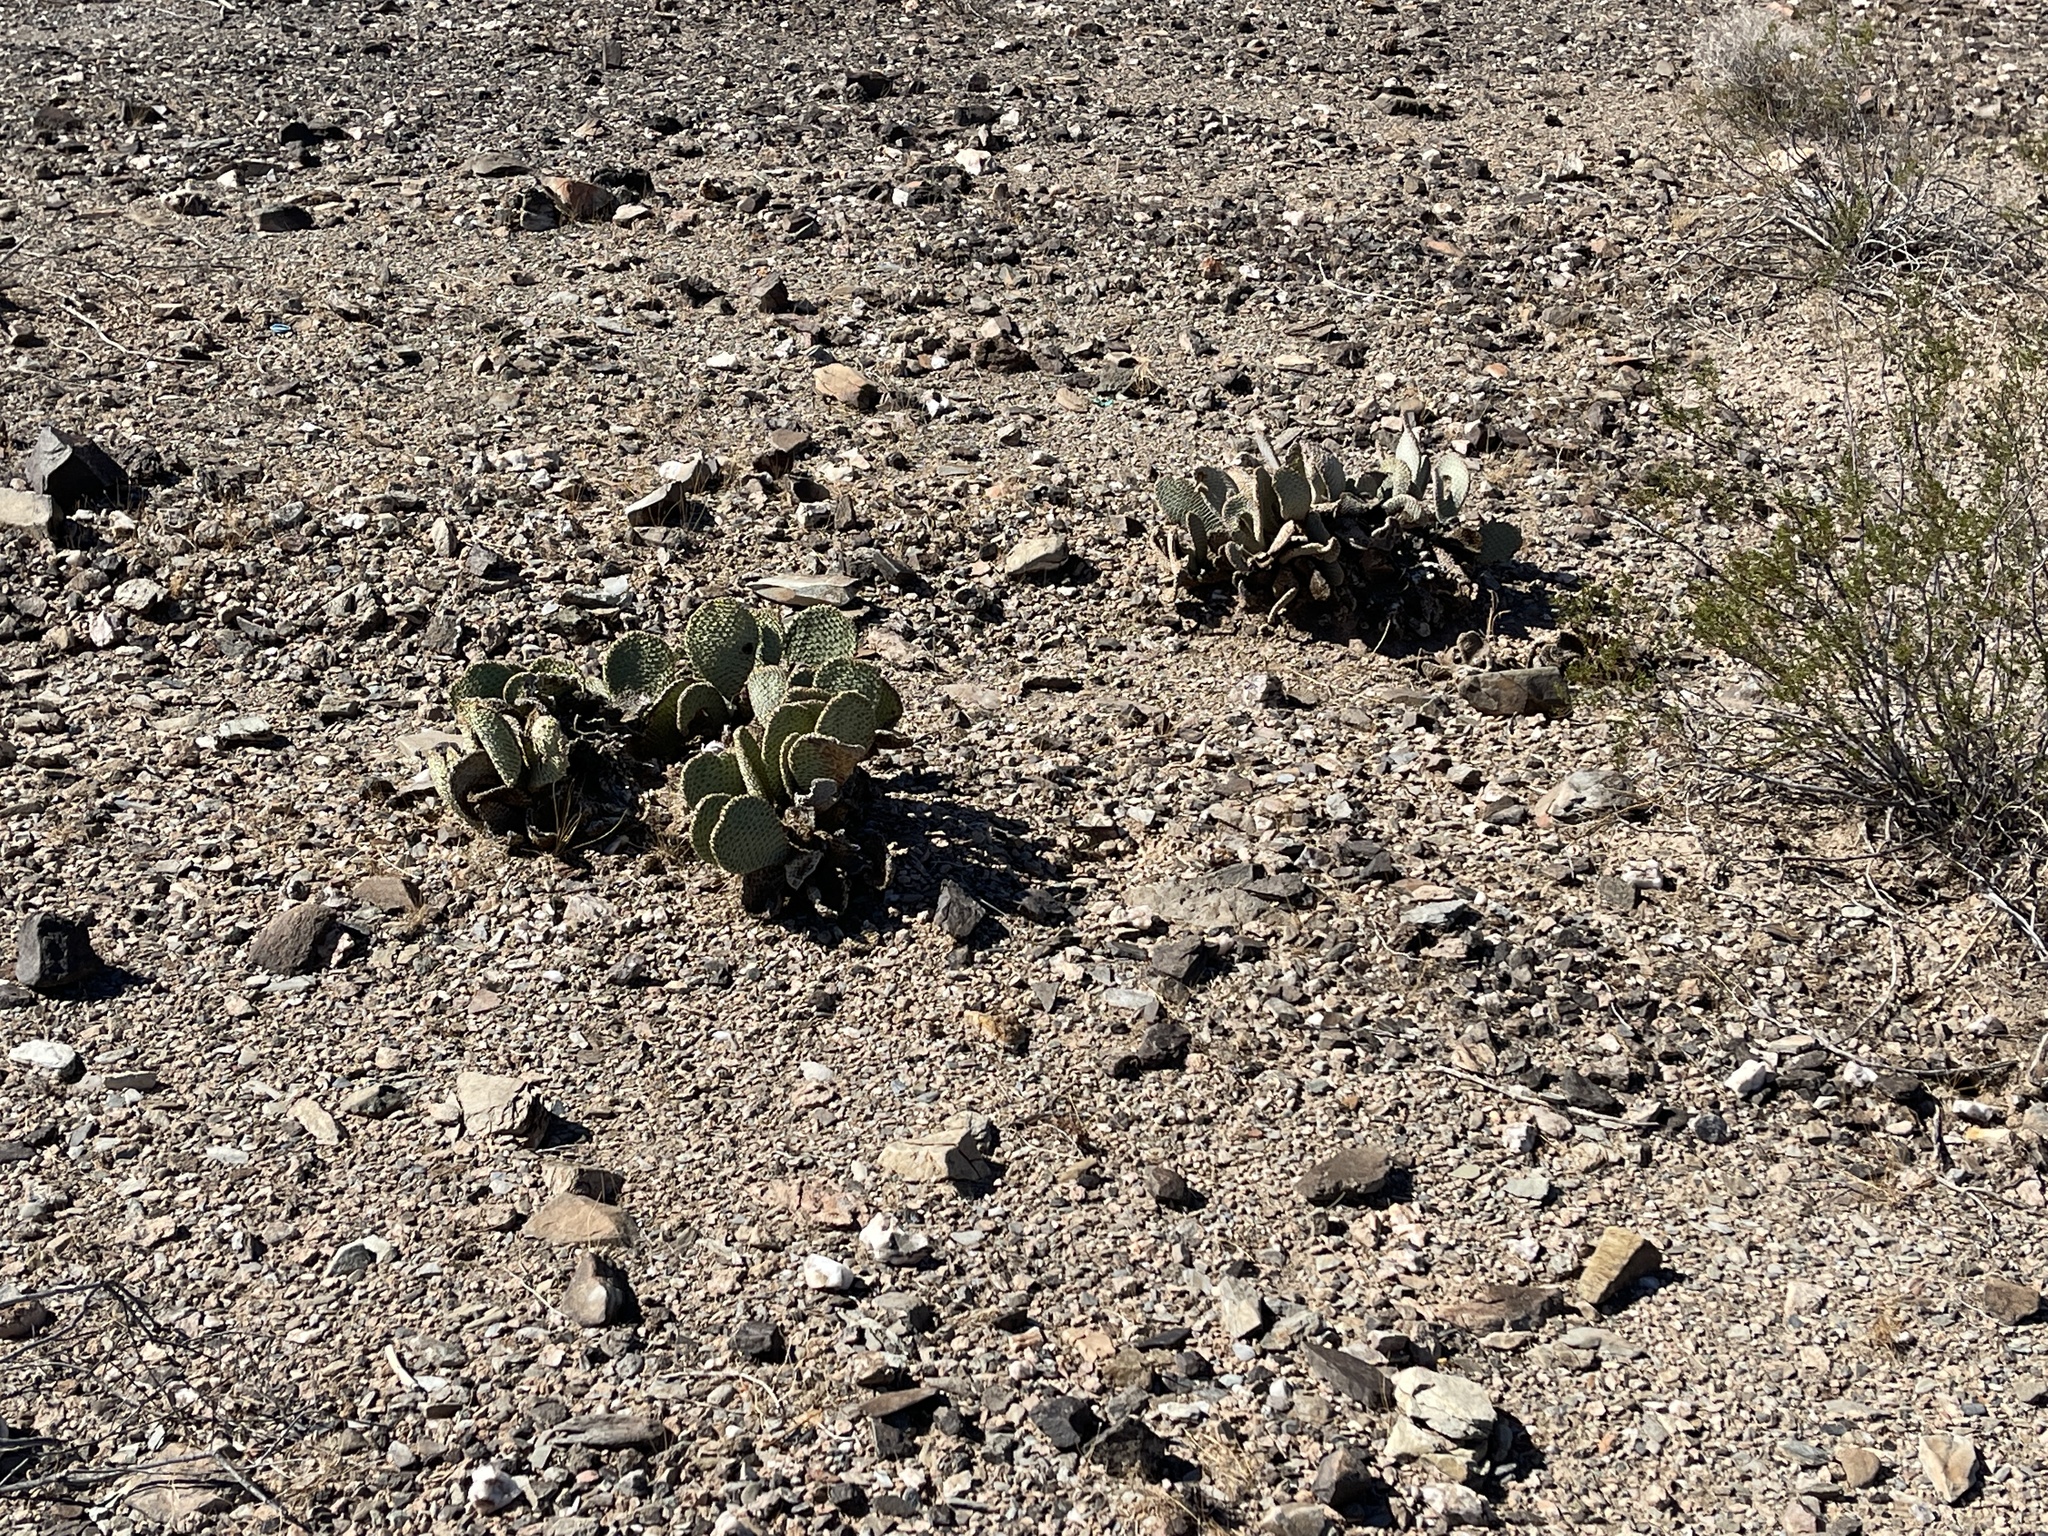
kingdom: Plantae
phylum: Tracheophyta
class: Magnoliopsida
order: Caryophyllales
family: Cactaceae
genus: Opuntia
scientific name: Opuntia basilaris
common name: Beavertail prickly-pear
